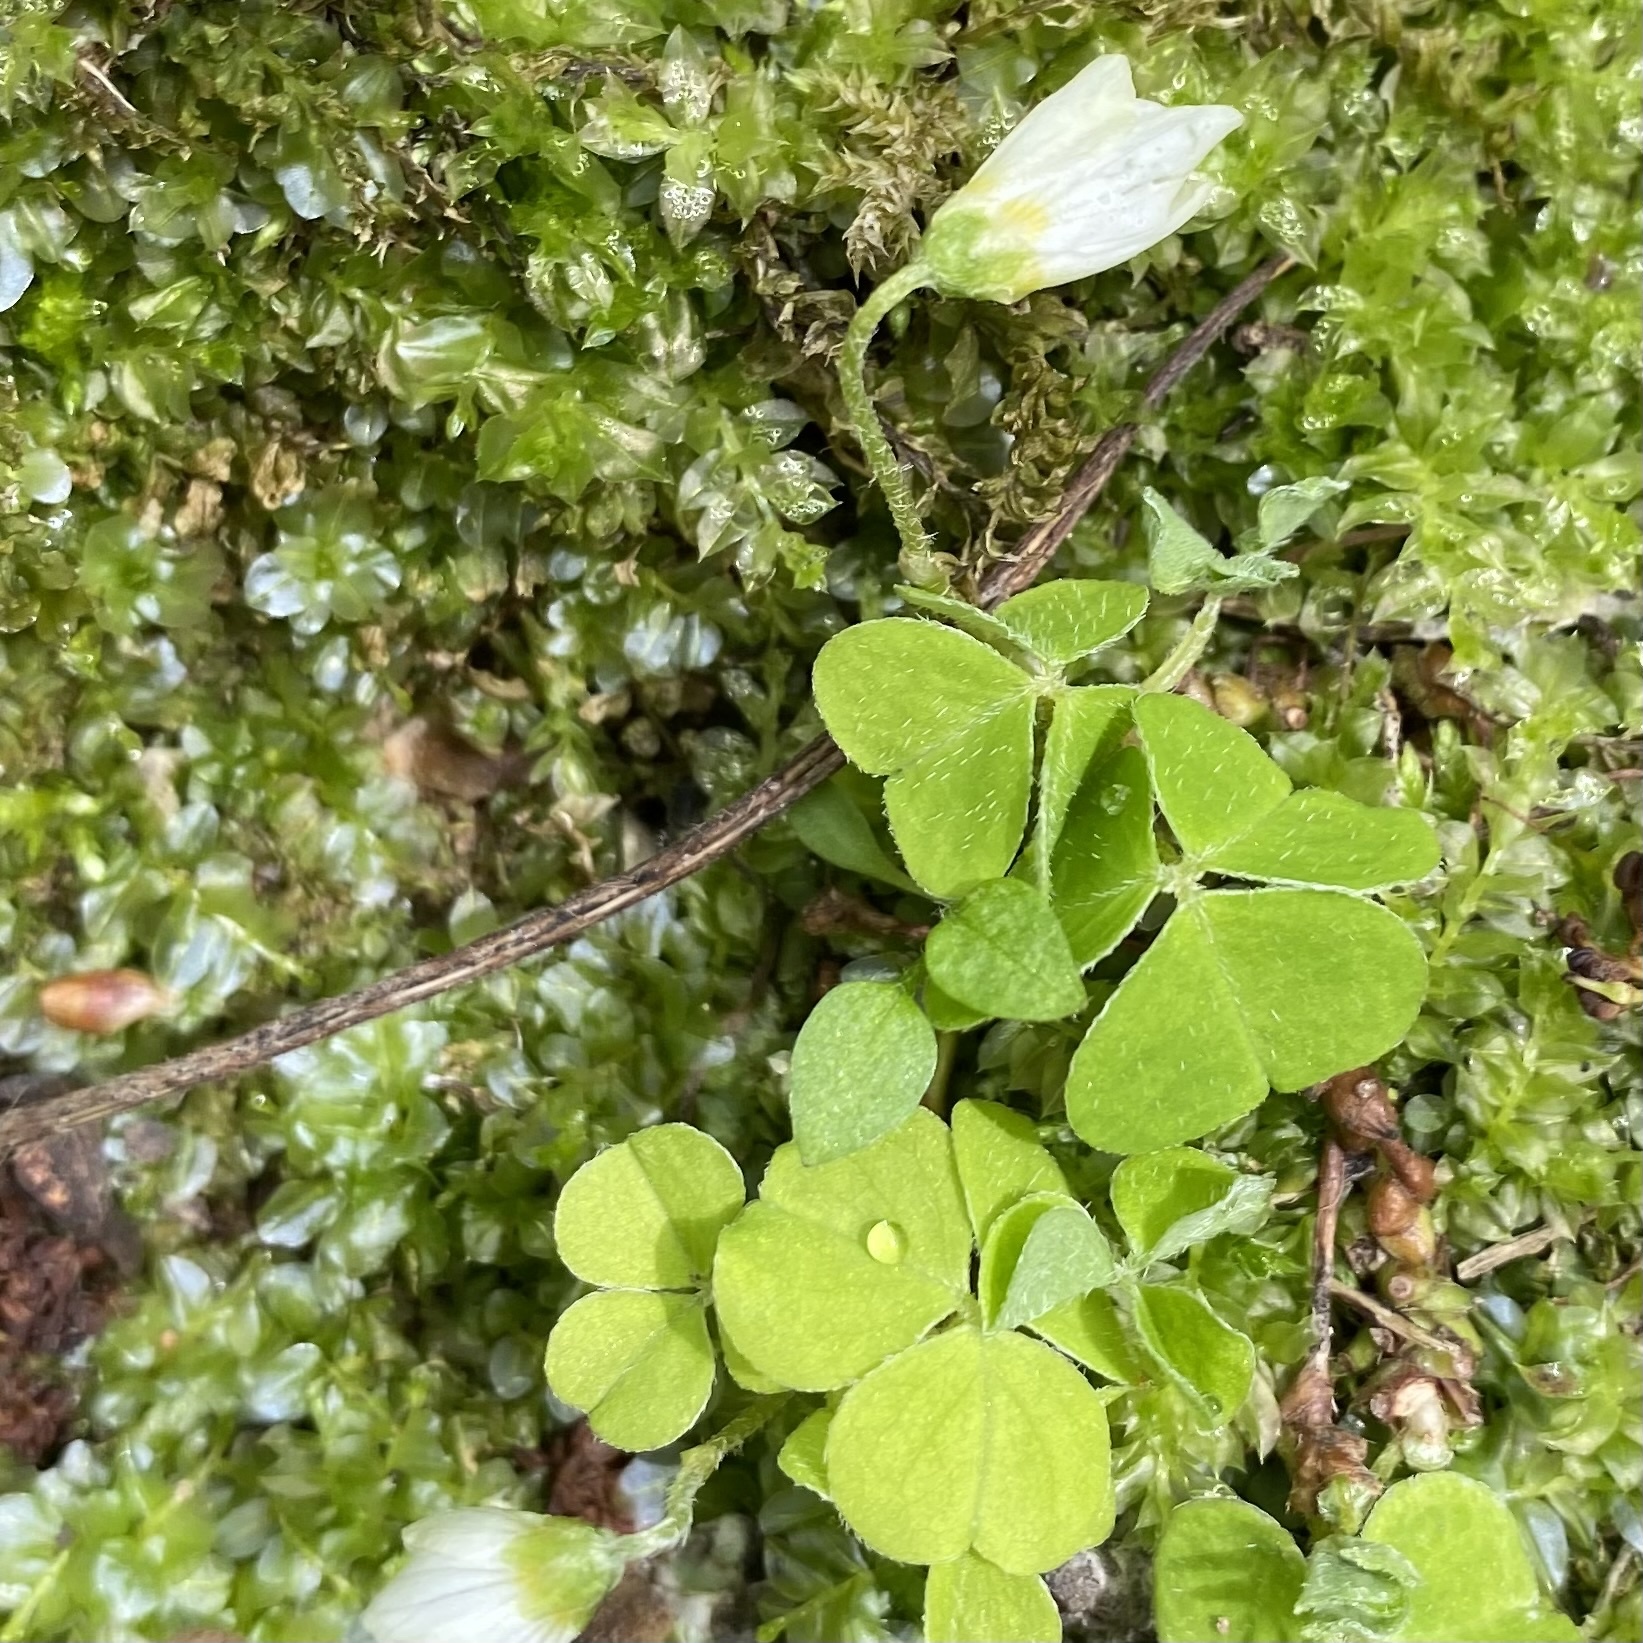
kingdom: Plantae
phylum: Tracheophyta
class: Magnoliopsida
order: Oxalidales
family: Oxalidaceae
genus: Oxalis
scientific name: Oxalis acetosella
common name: Wood-sorrel
